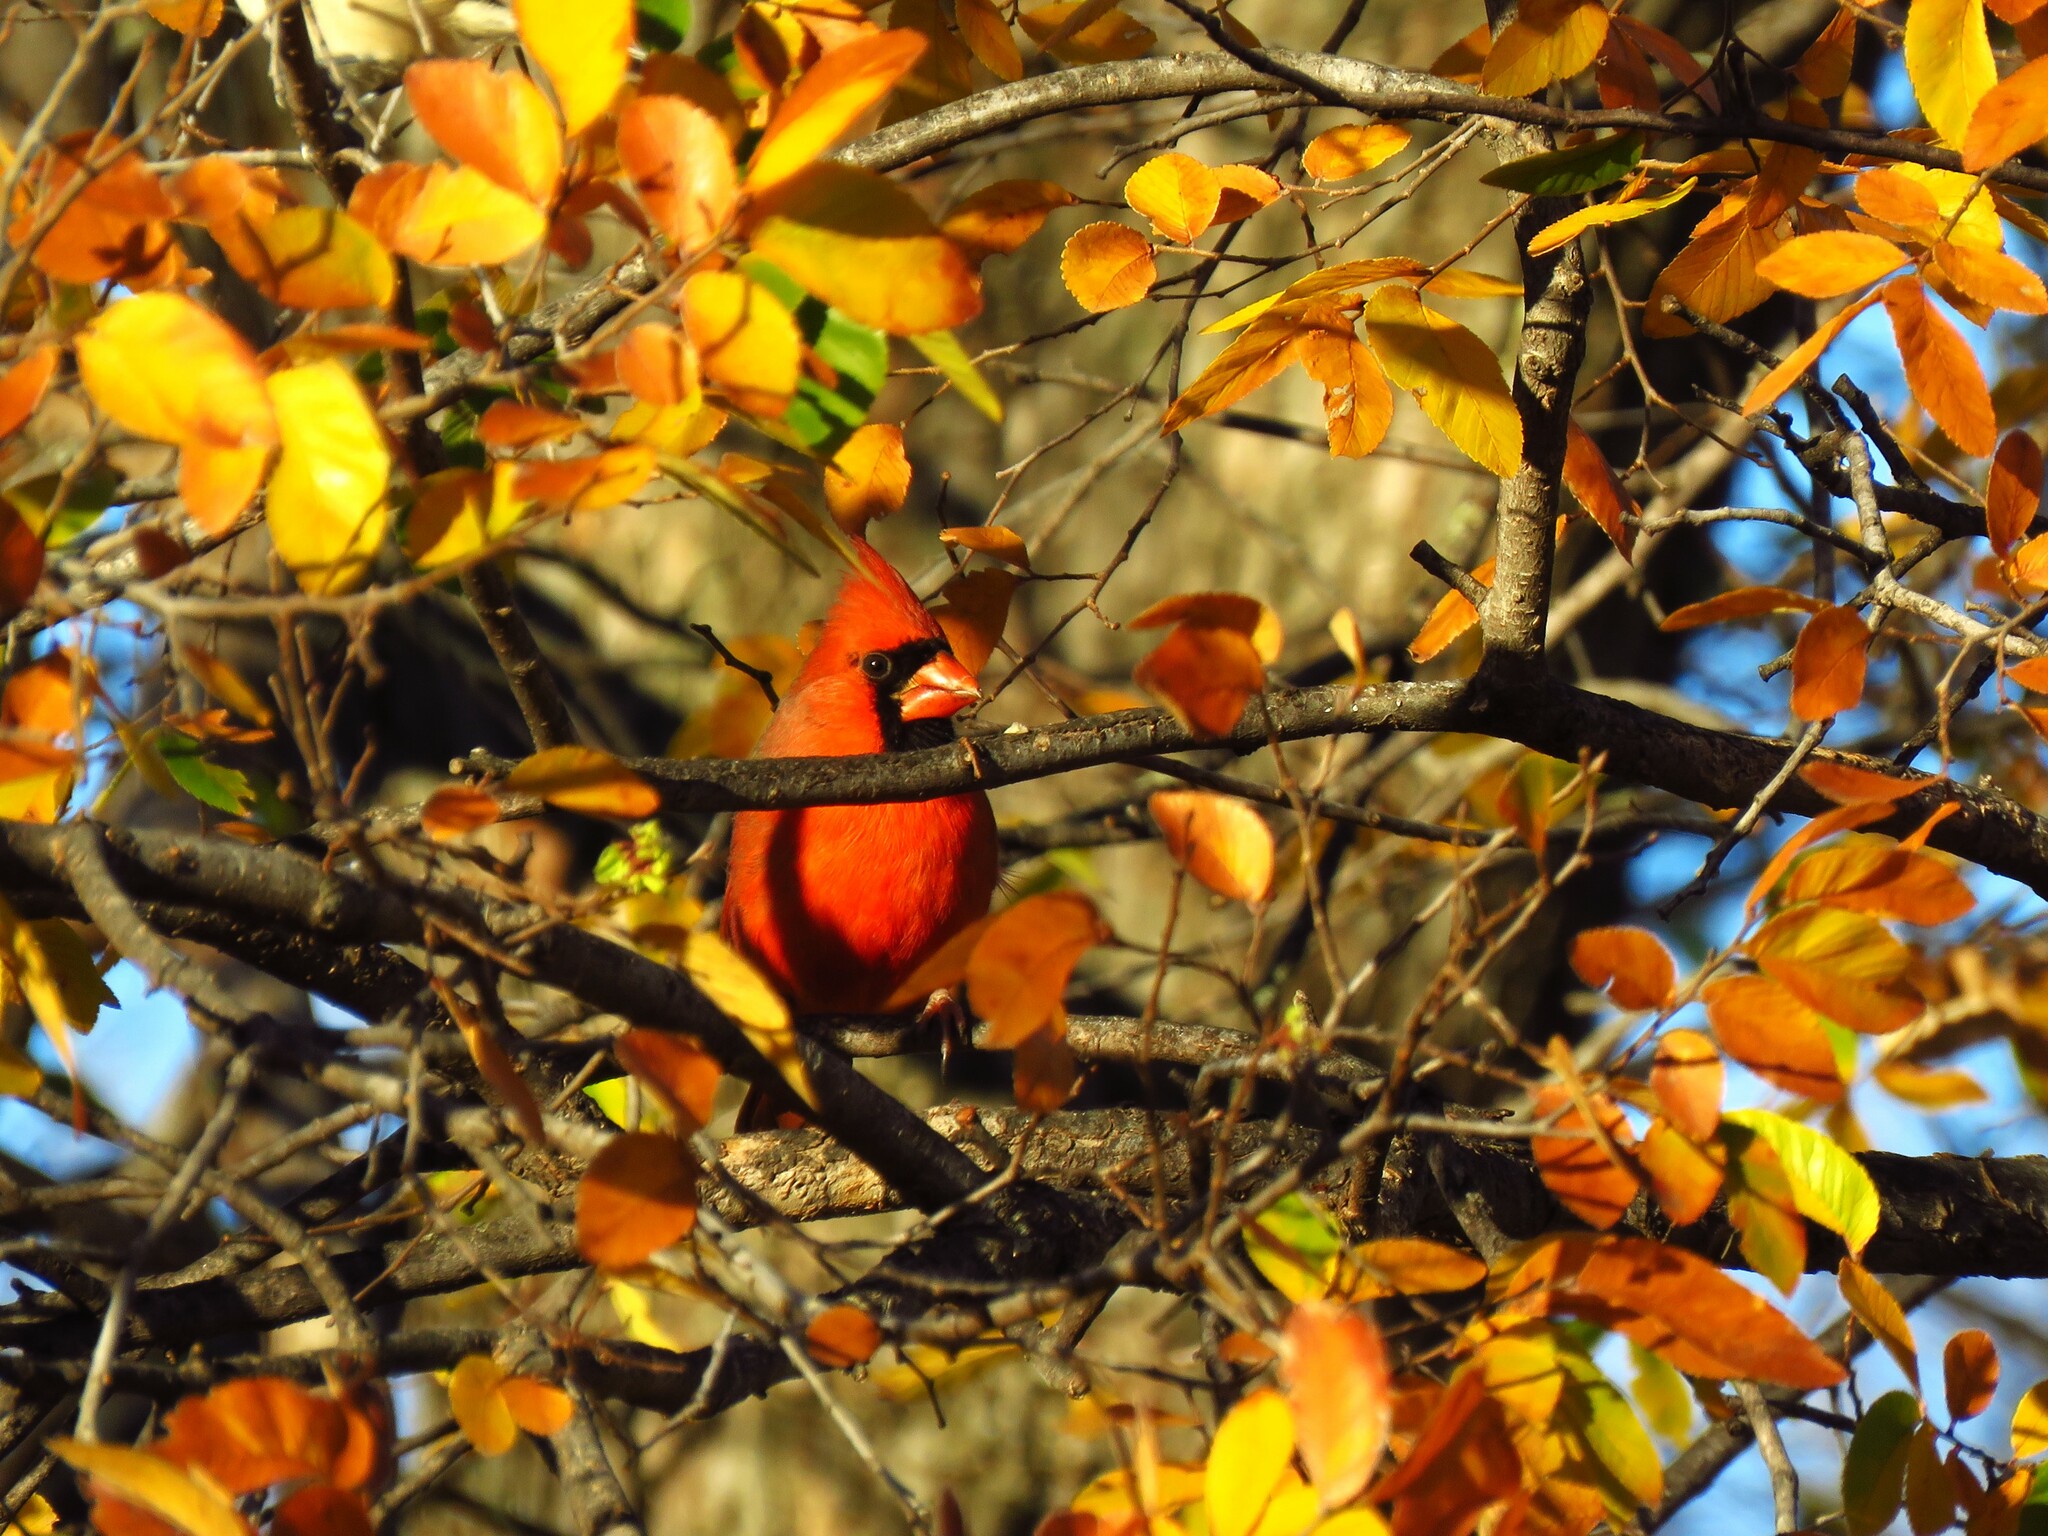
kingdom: Animalia
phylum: Chordata
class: Aves
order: Passeriformes
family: Cardinalidae
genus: Cardinalis
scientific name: Cardinalis cardinalis
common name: Northern cardinal
